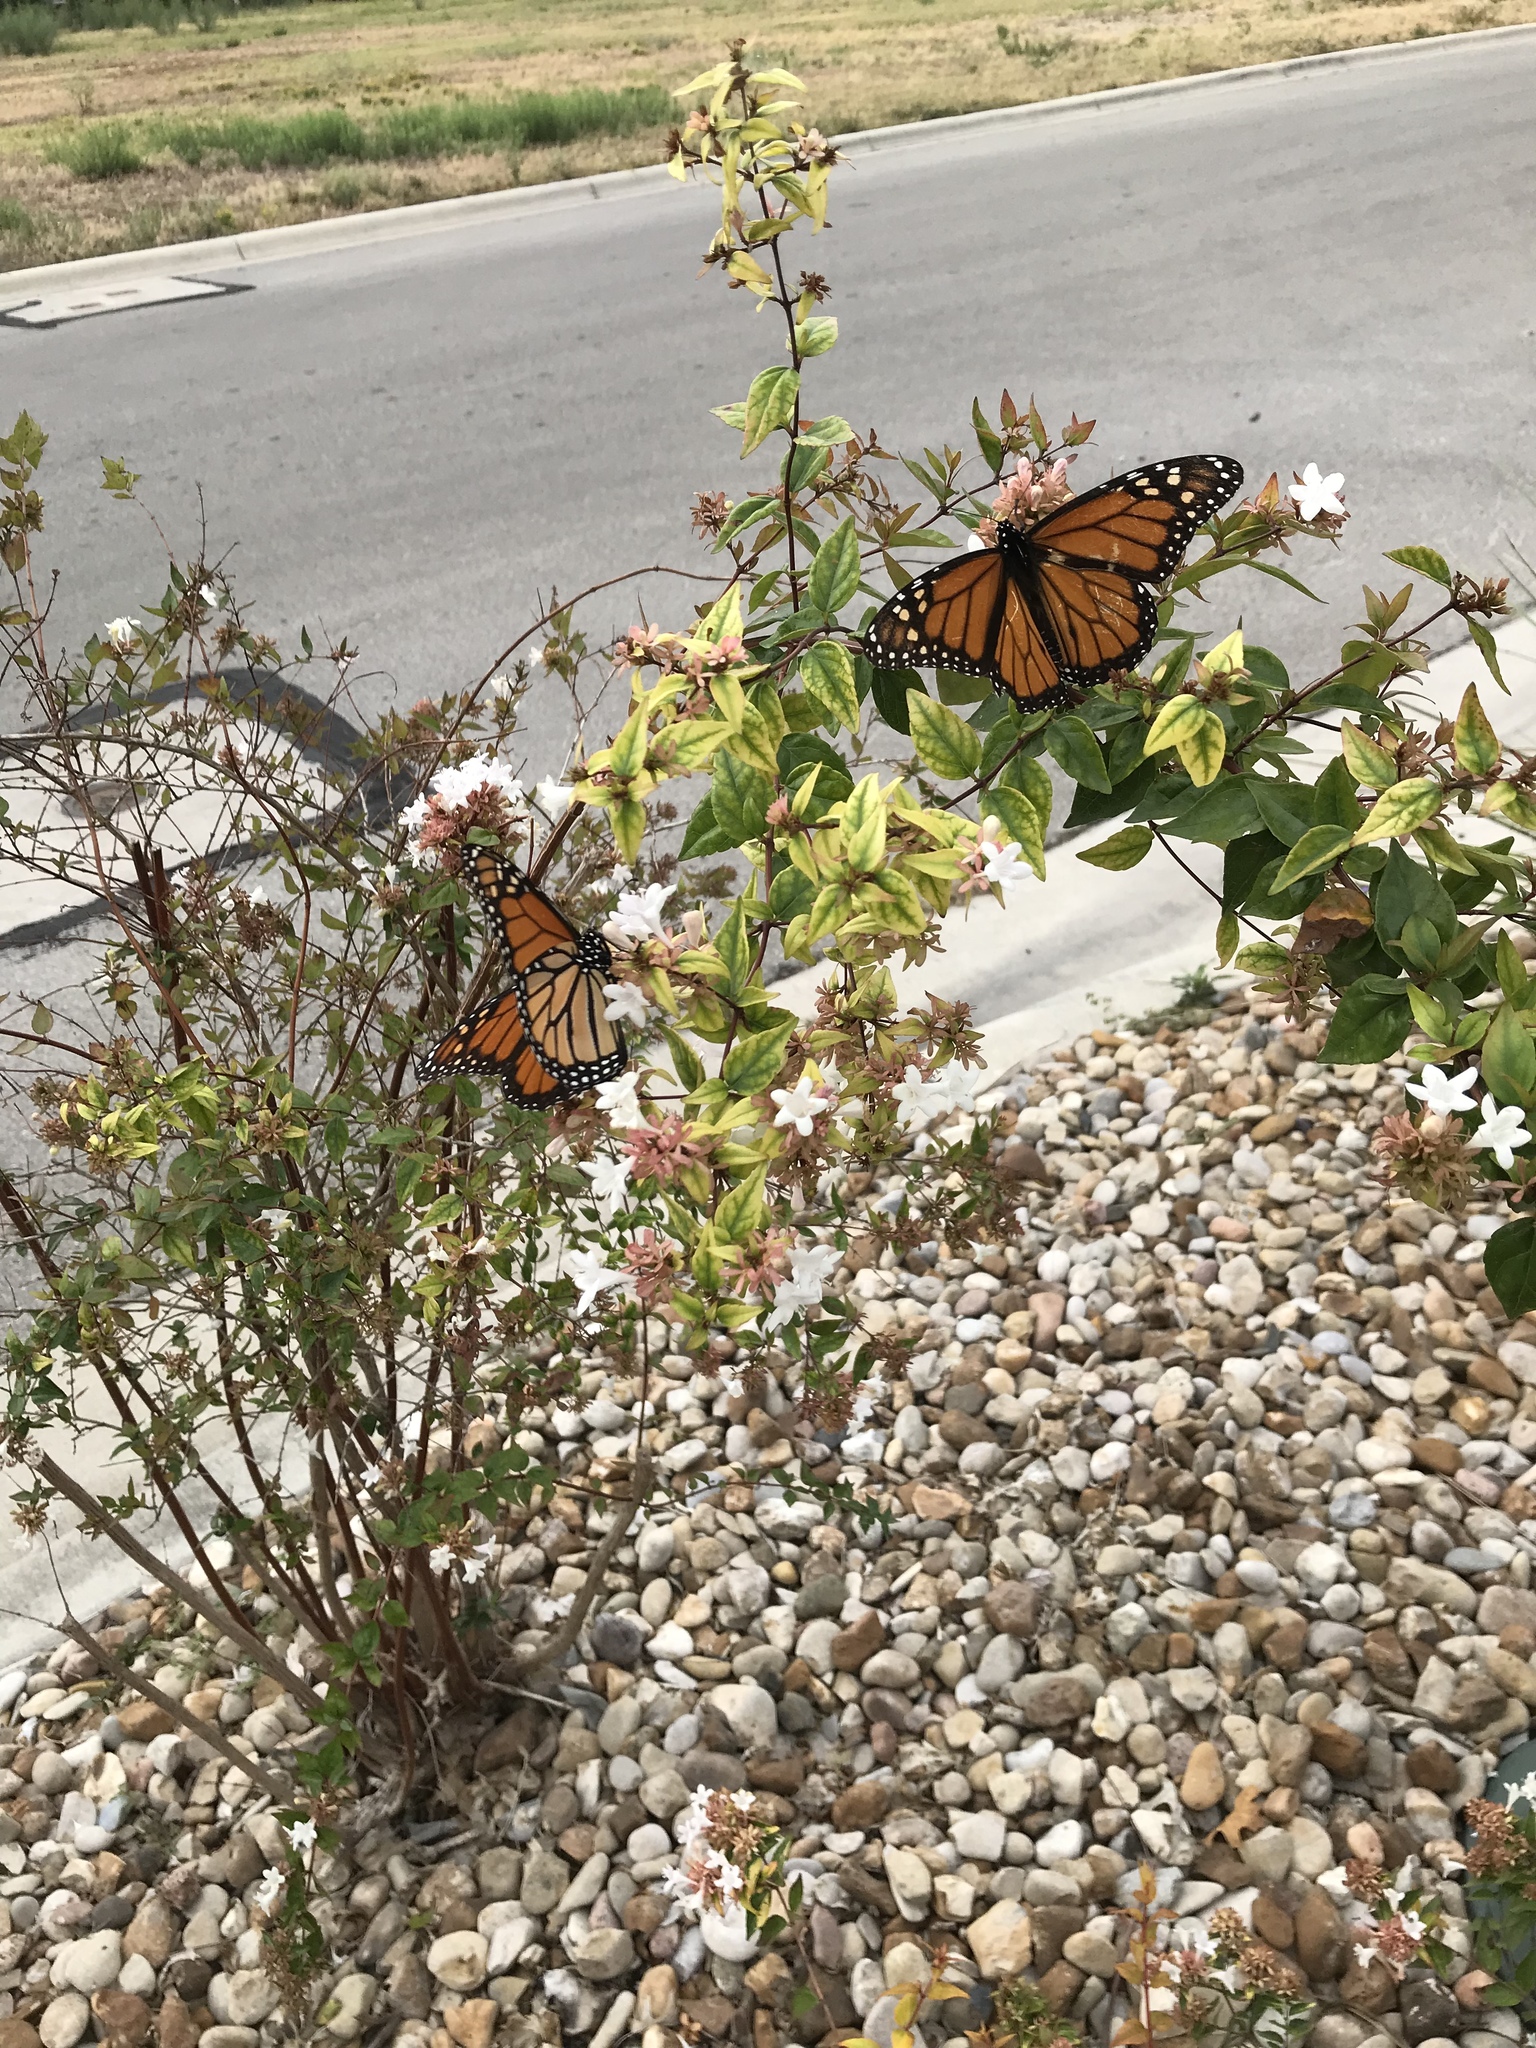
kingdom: Animalia
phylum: Arthropoda
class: Insecta
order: Lepidoptera
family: Nymphalidae
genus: Danaus
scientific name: Danaus plexippus
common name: Monarch
